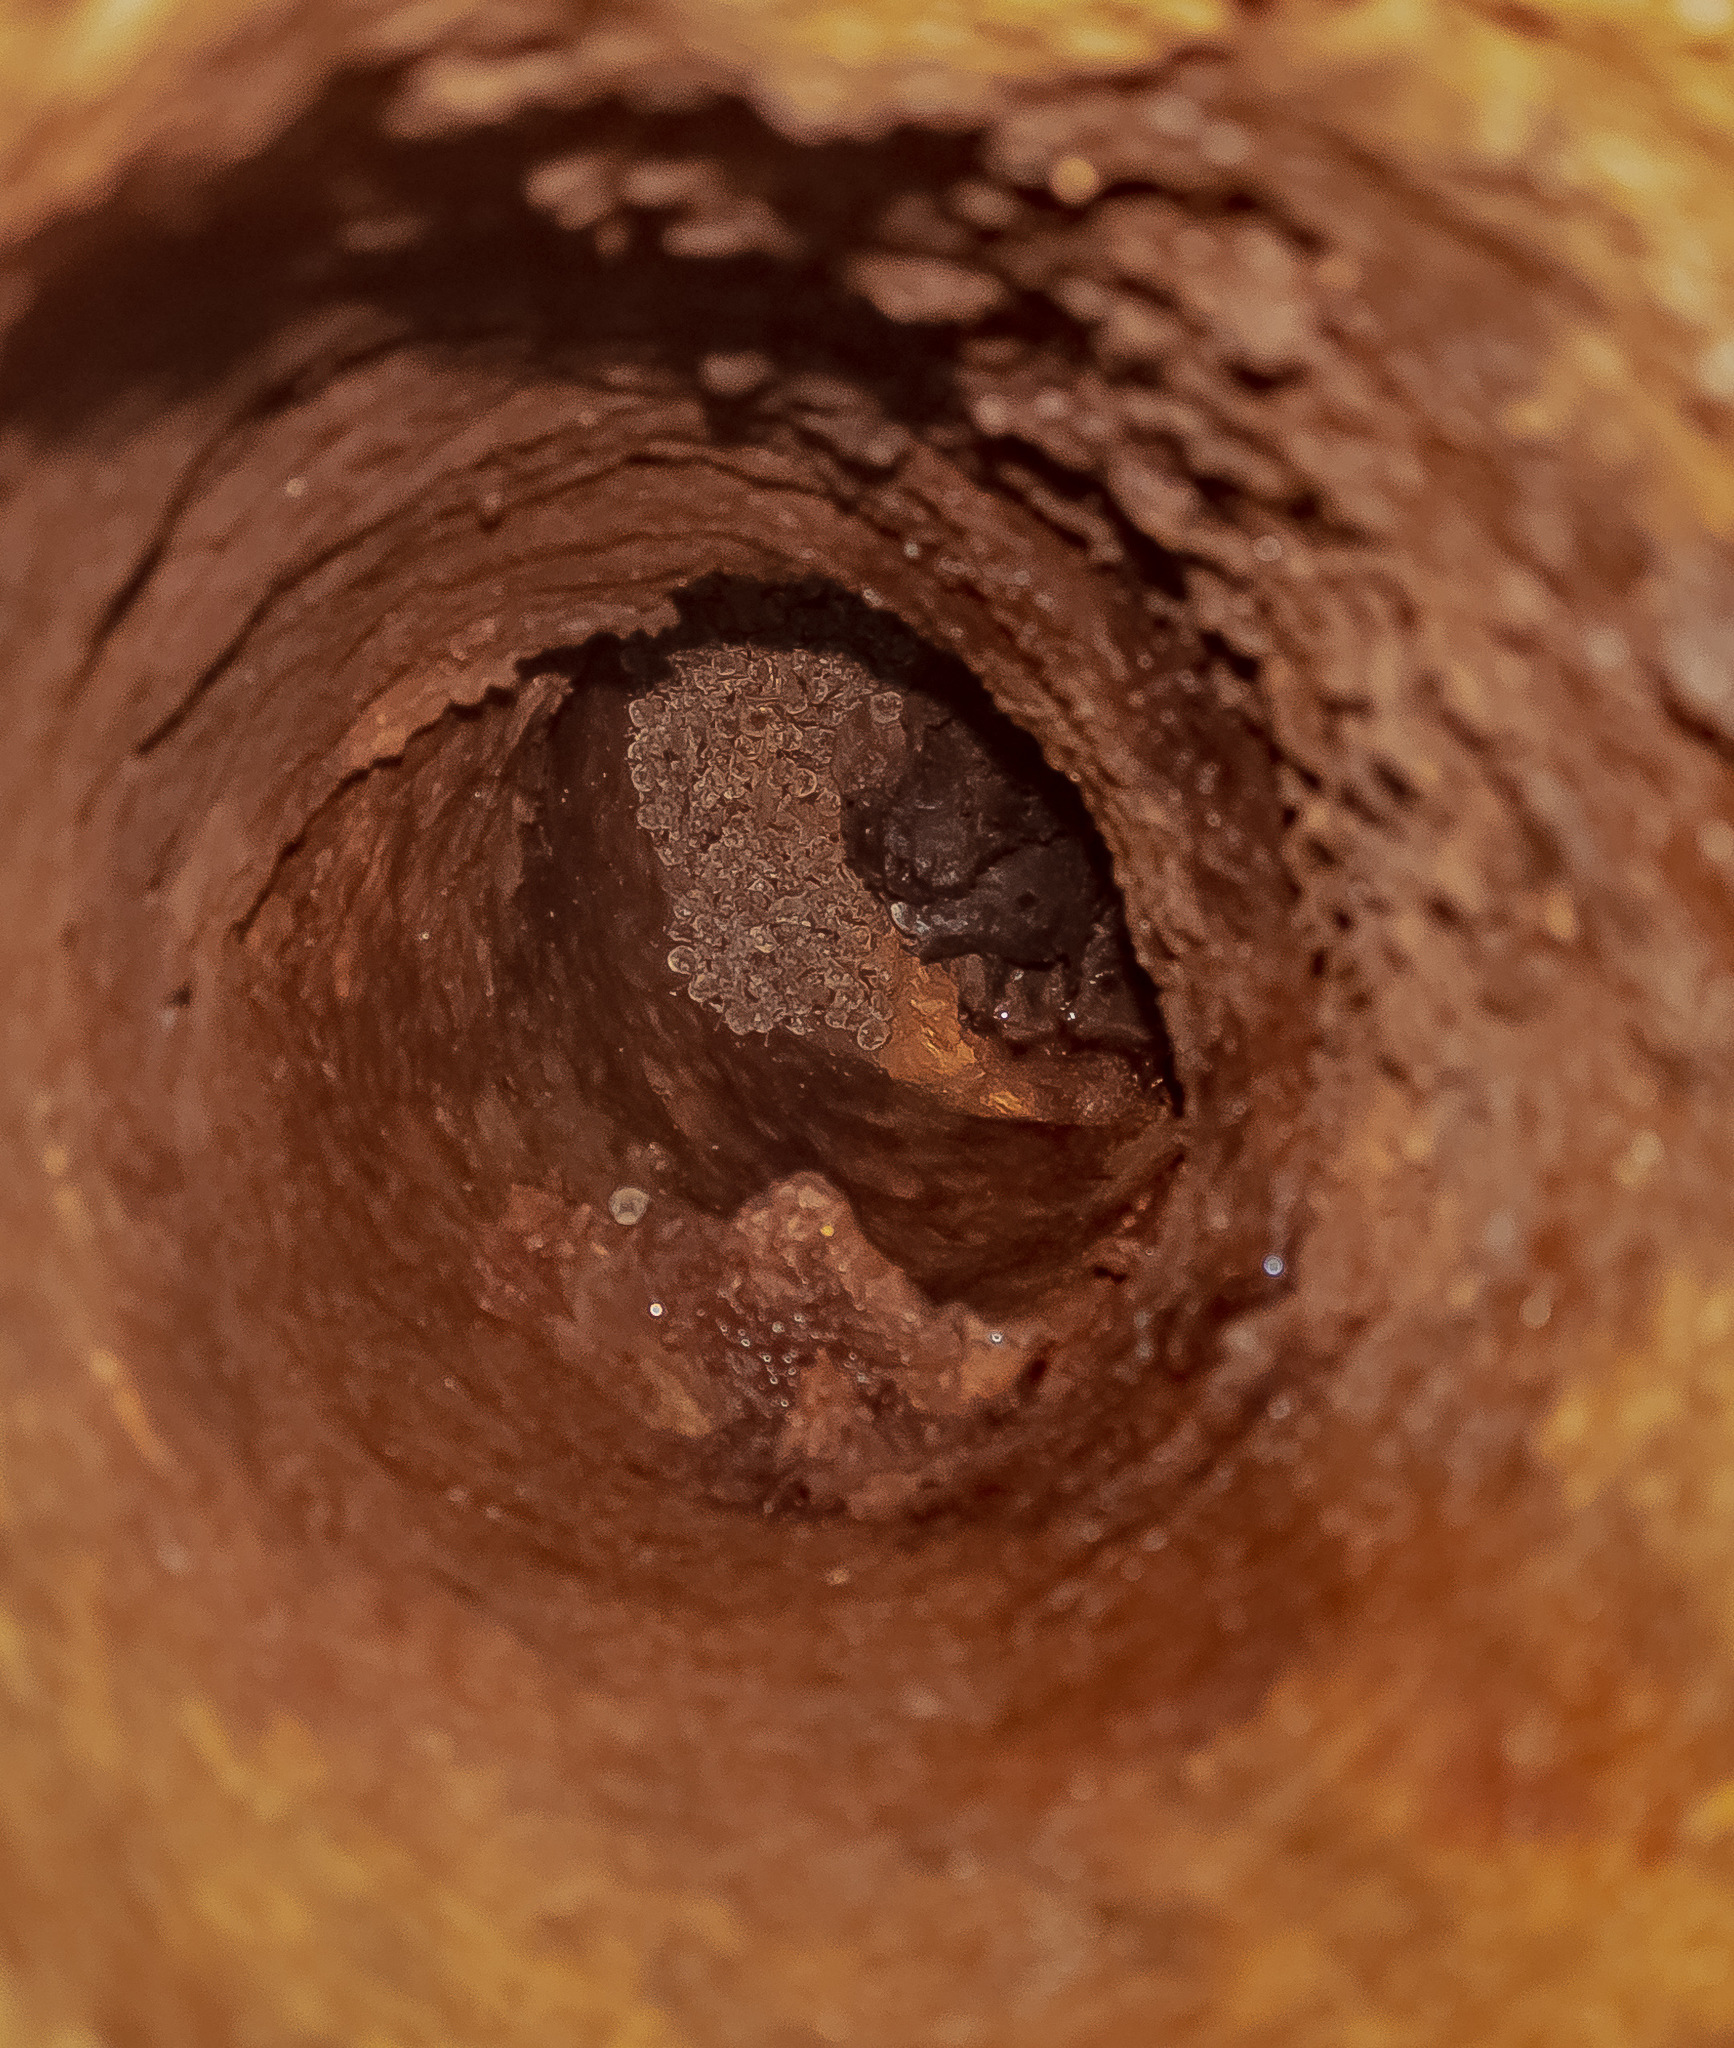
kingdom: Animalia
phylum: Chordata
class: Mammalia
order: Chiroptera
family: Vespertilionidae
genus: Myotis
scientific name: Myotis austroriparius
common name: Southeastern myotis
